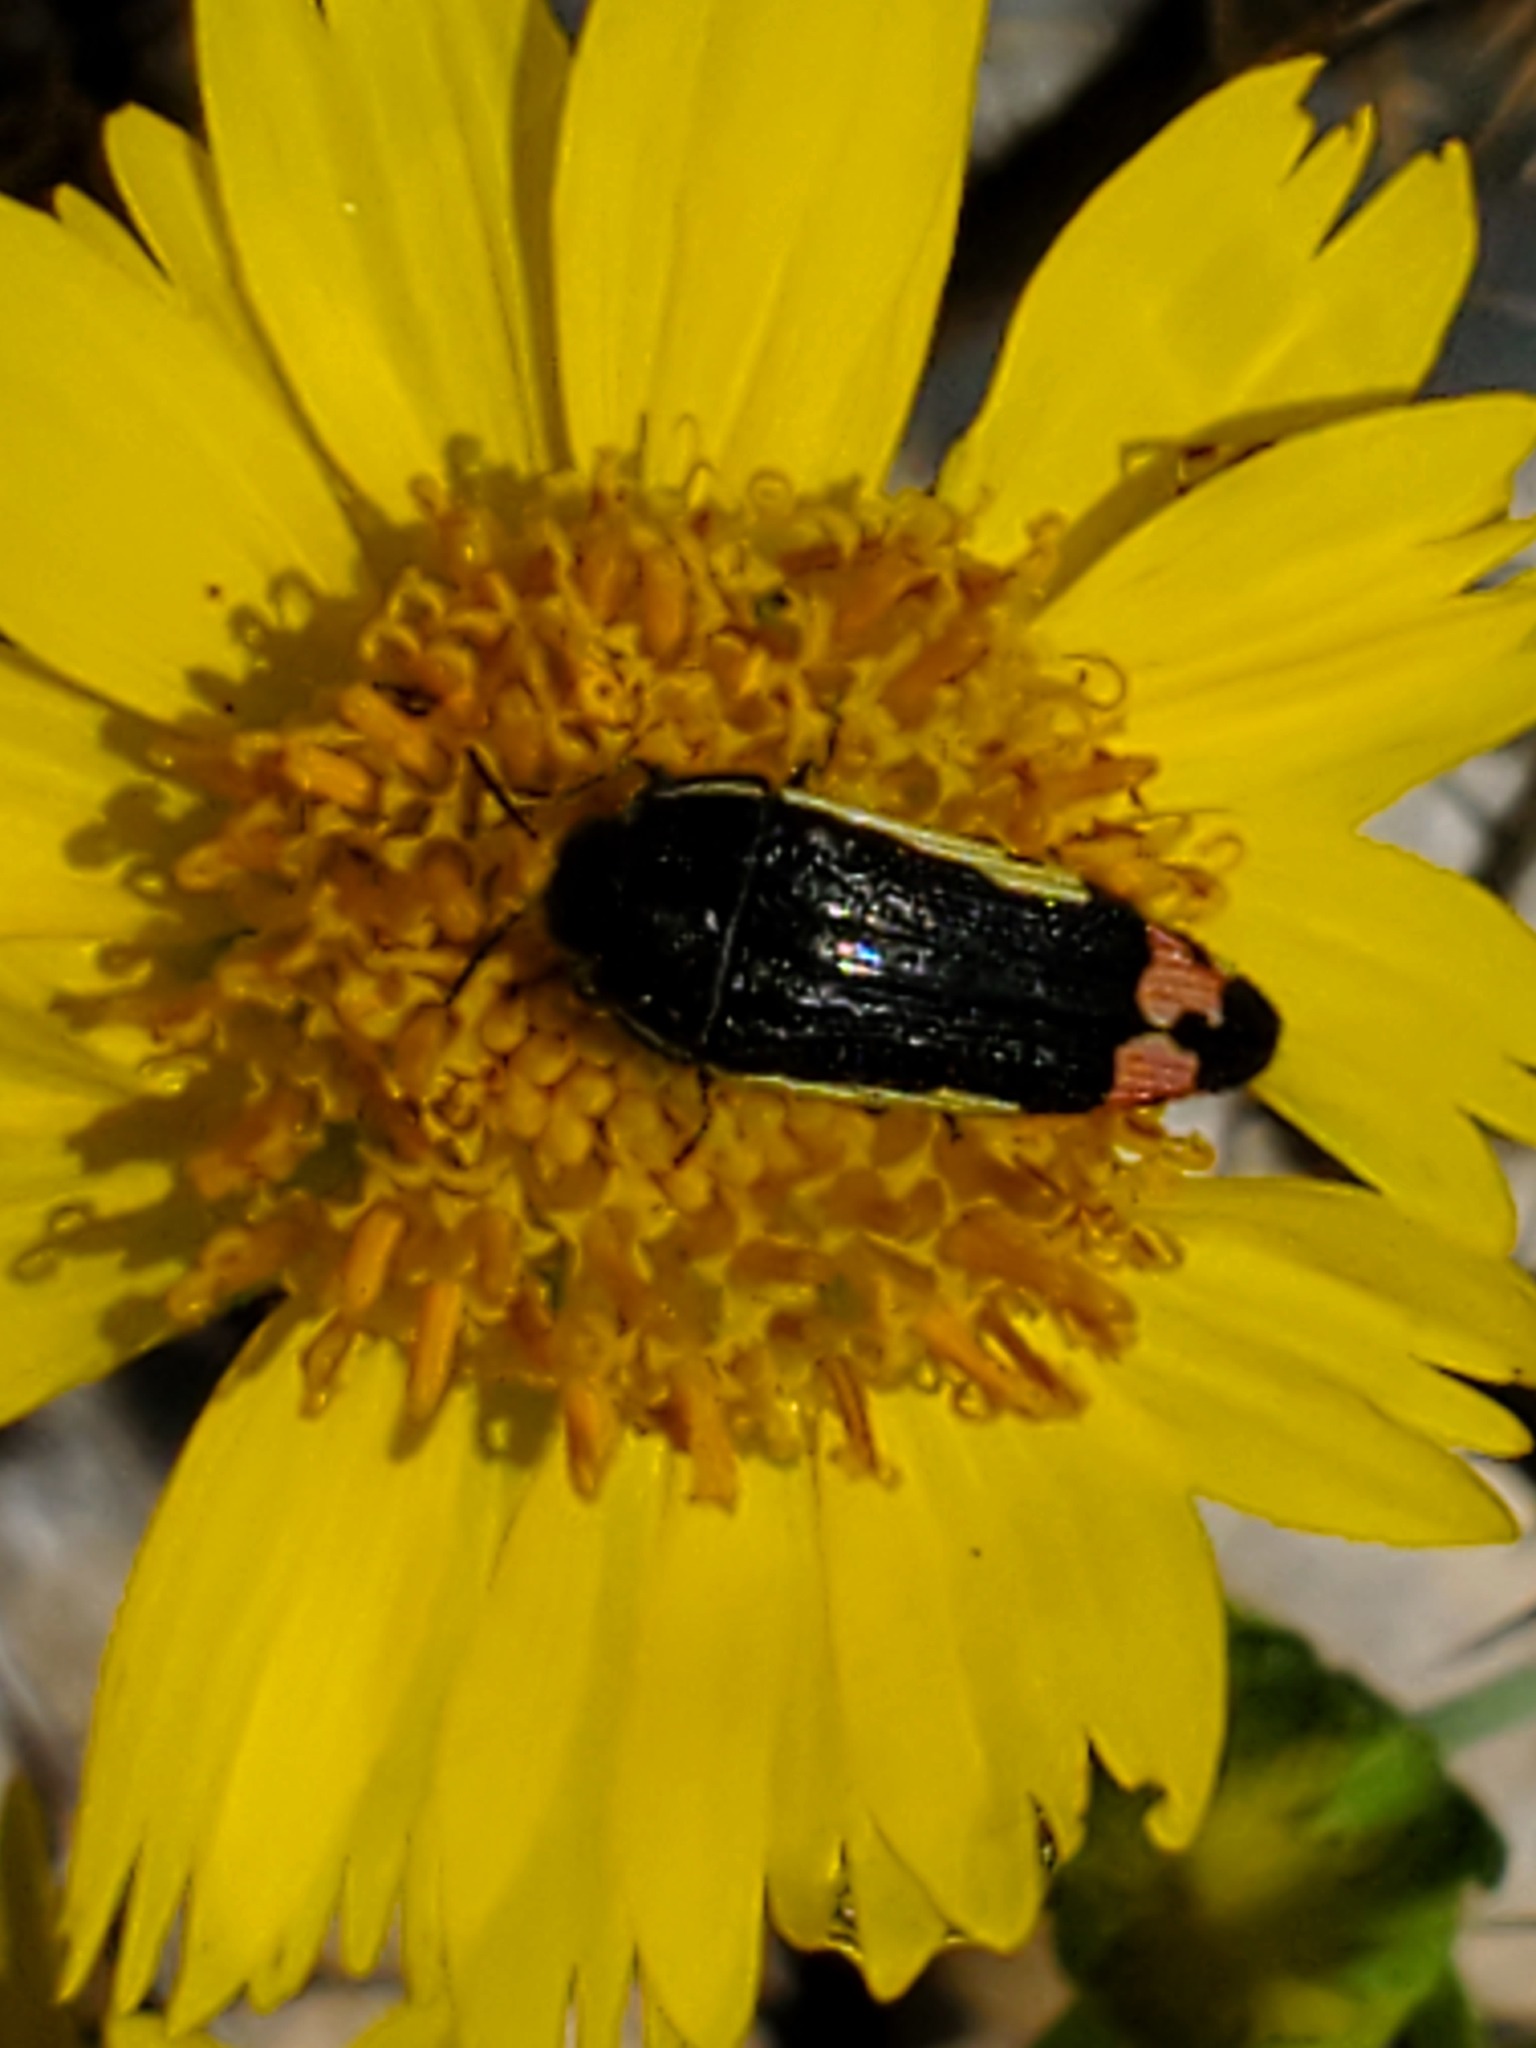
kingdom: Animalia
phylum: Arthropoda
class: Insecta
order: Coleoptera
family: Buprestidae
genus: Acmaeodera
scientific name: Acmaeodera flavomarginata
